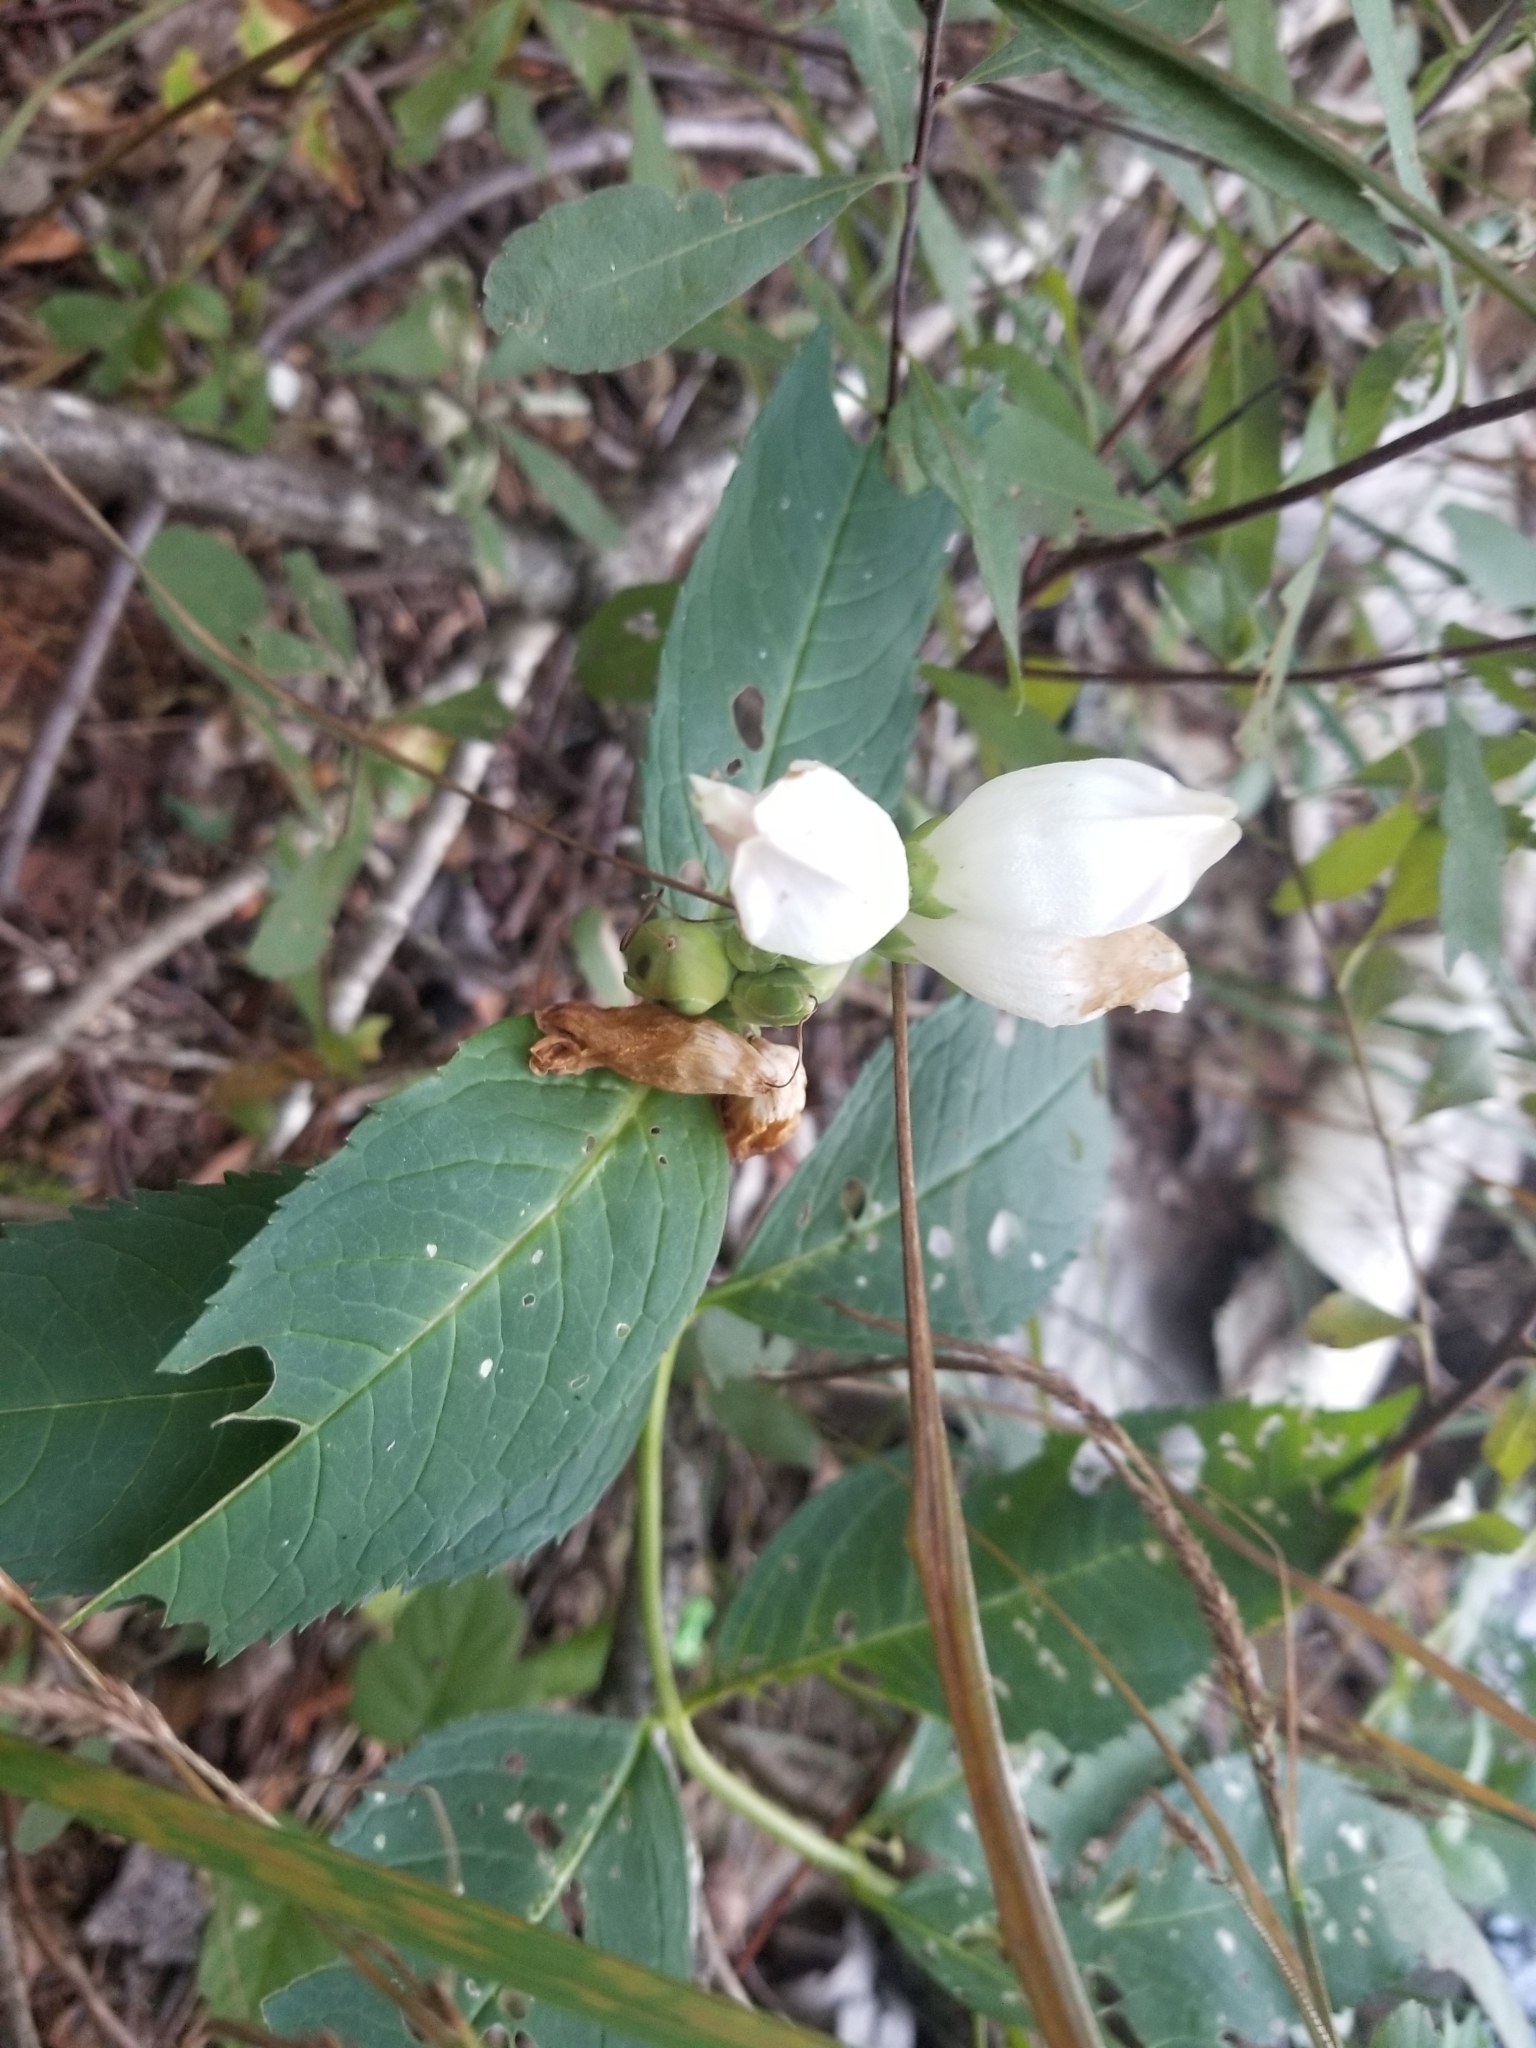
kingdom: Plantae
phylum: Tracheophyta
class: Magnoliopsida
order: Lamiales
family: Plantaginaceae
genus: Chelone
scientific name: Chelone glabra
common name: Snakehead
